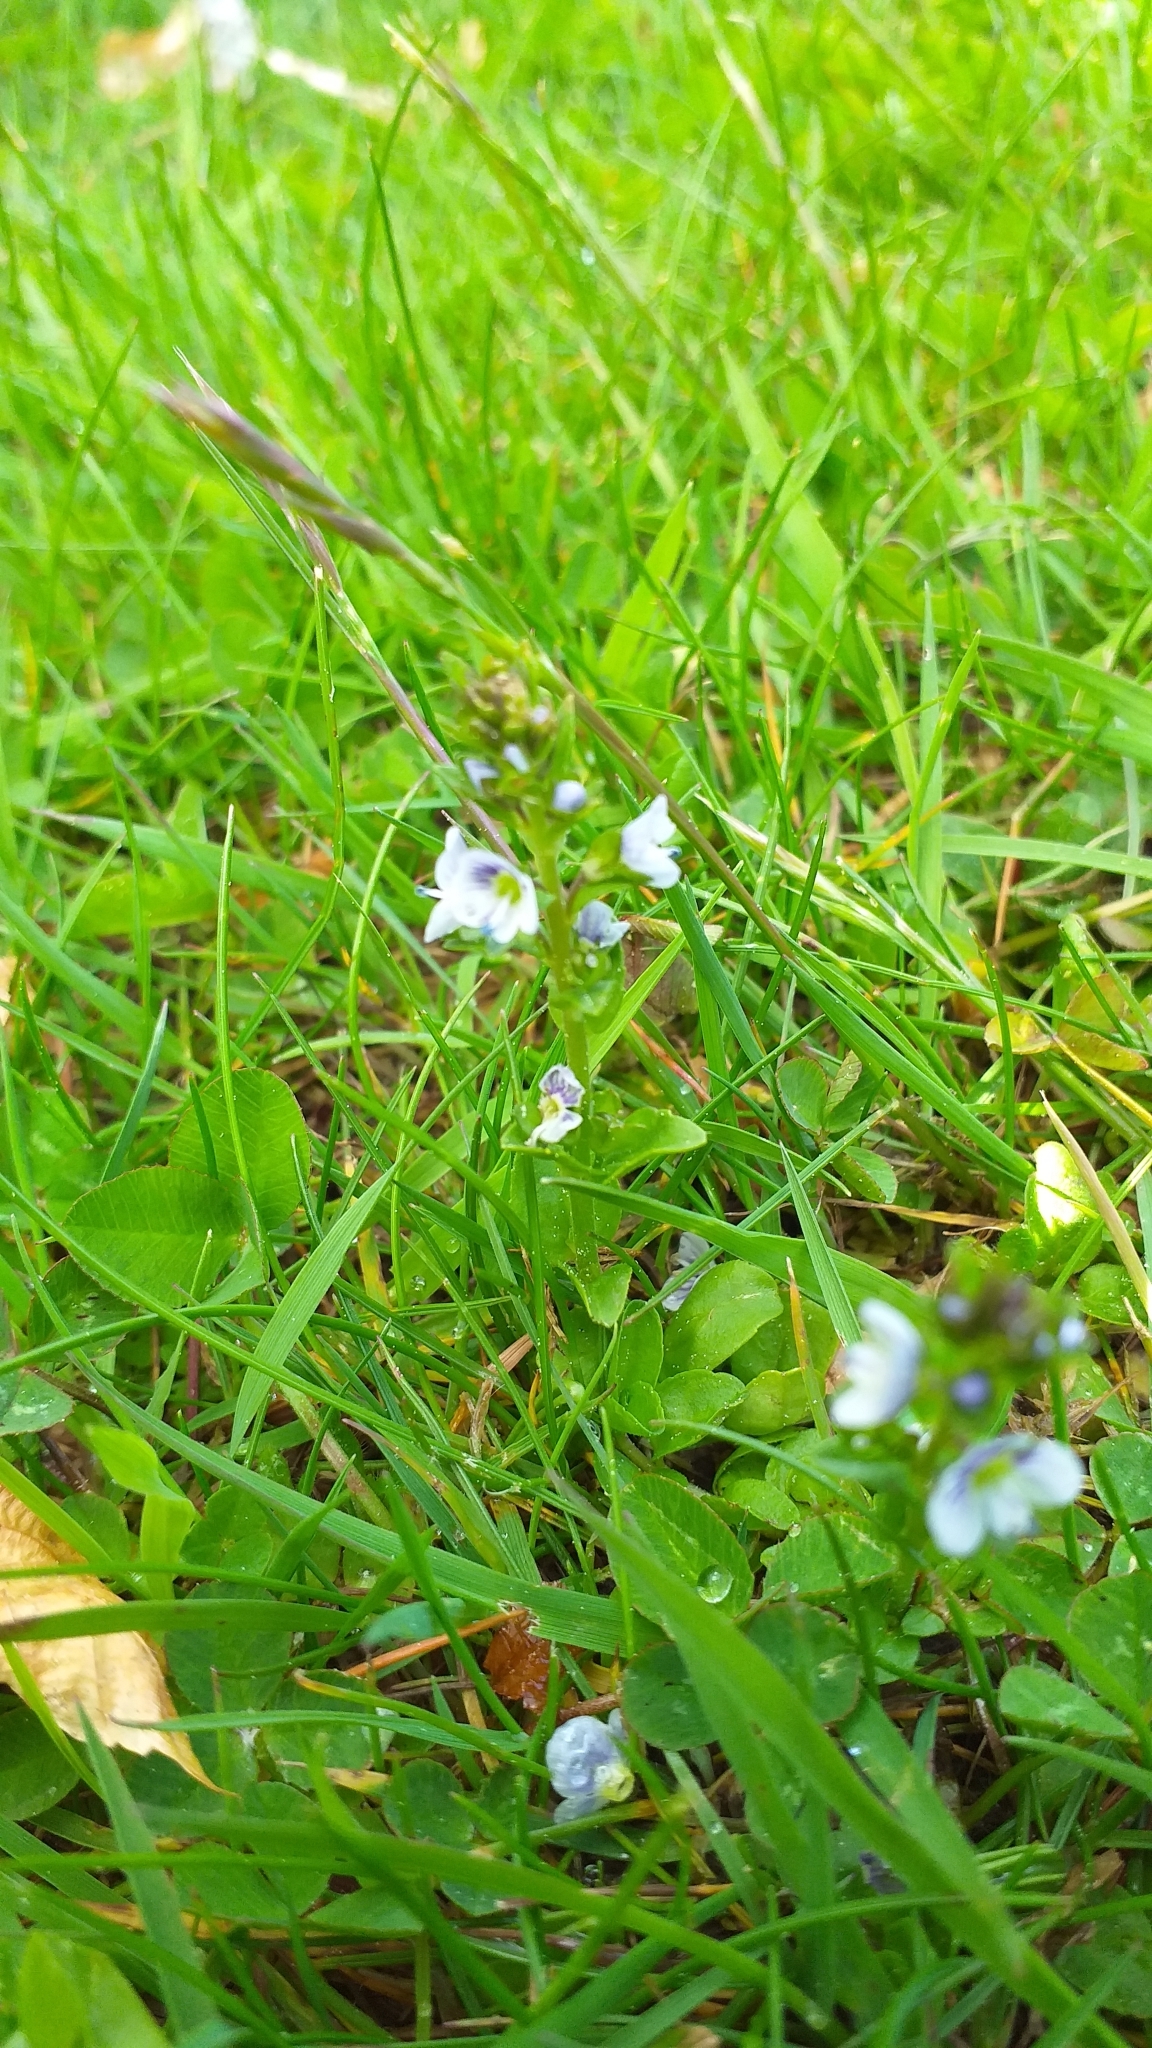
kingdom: Plantae
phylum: Tracheophyta
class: Magnoliopsida
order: Lamiales
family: Plantaginaceae
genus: Veronica
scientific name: Veronica serpyllifolia
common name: Thyme-leaved speedwell
